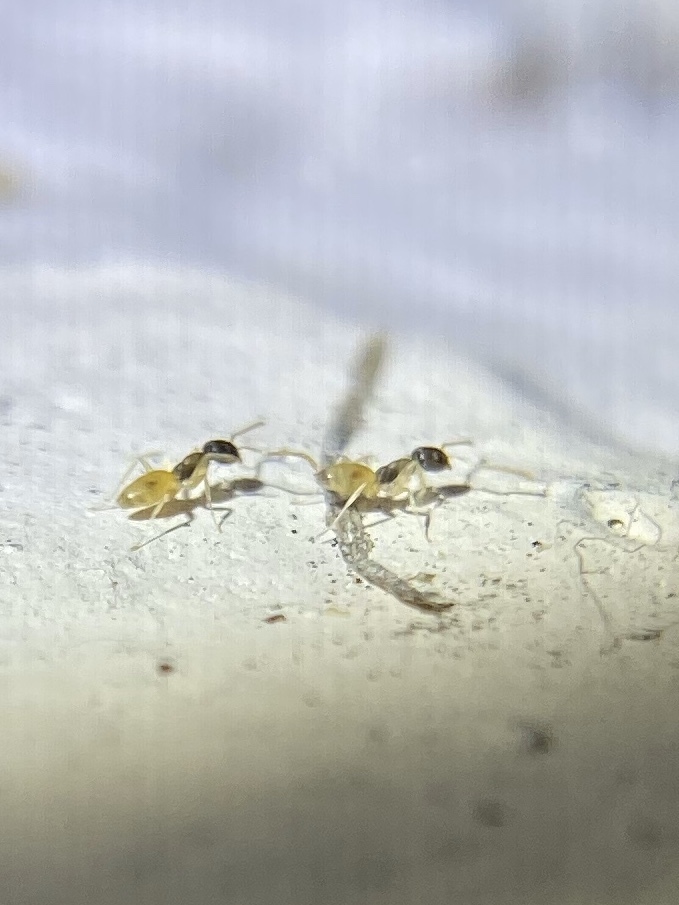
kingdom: Animalia
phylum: Arthropoda
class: Insecta
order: Hymenoptera
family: Formicidae
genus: Tapinoma
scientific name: Tapinoma melanocephalum
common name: Ghost ant
